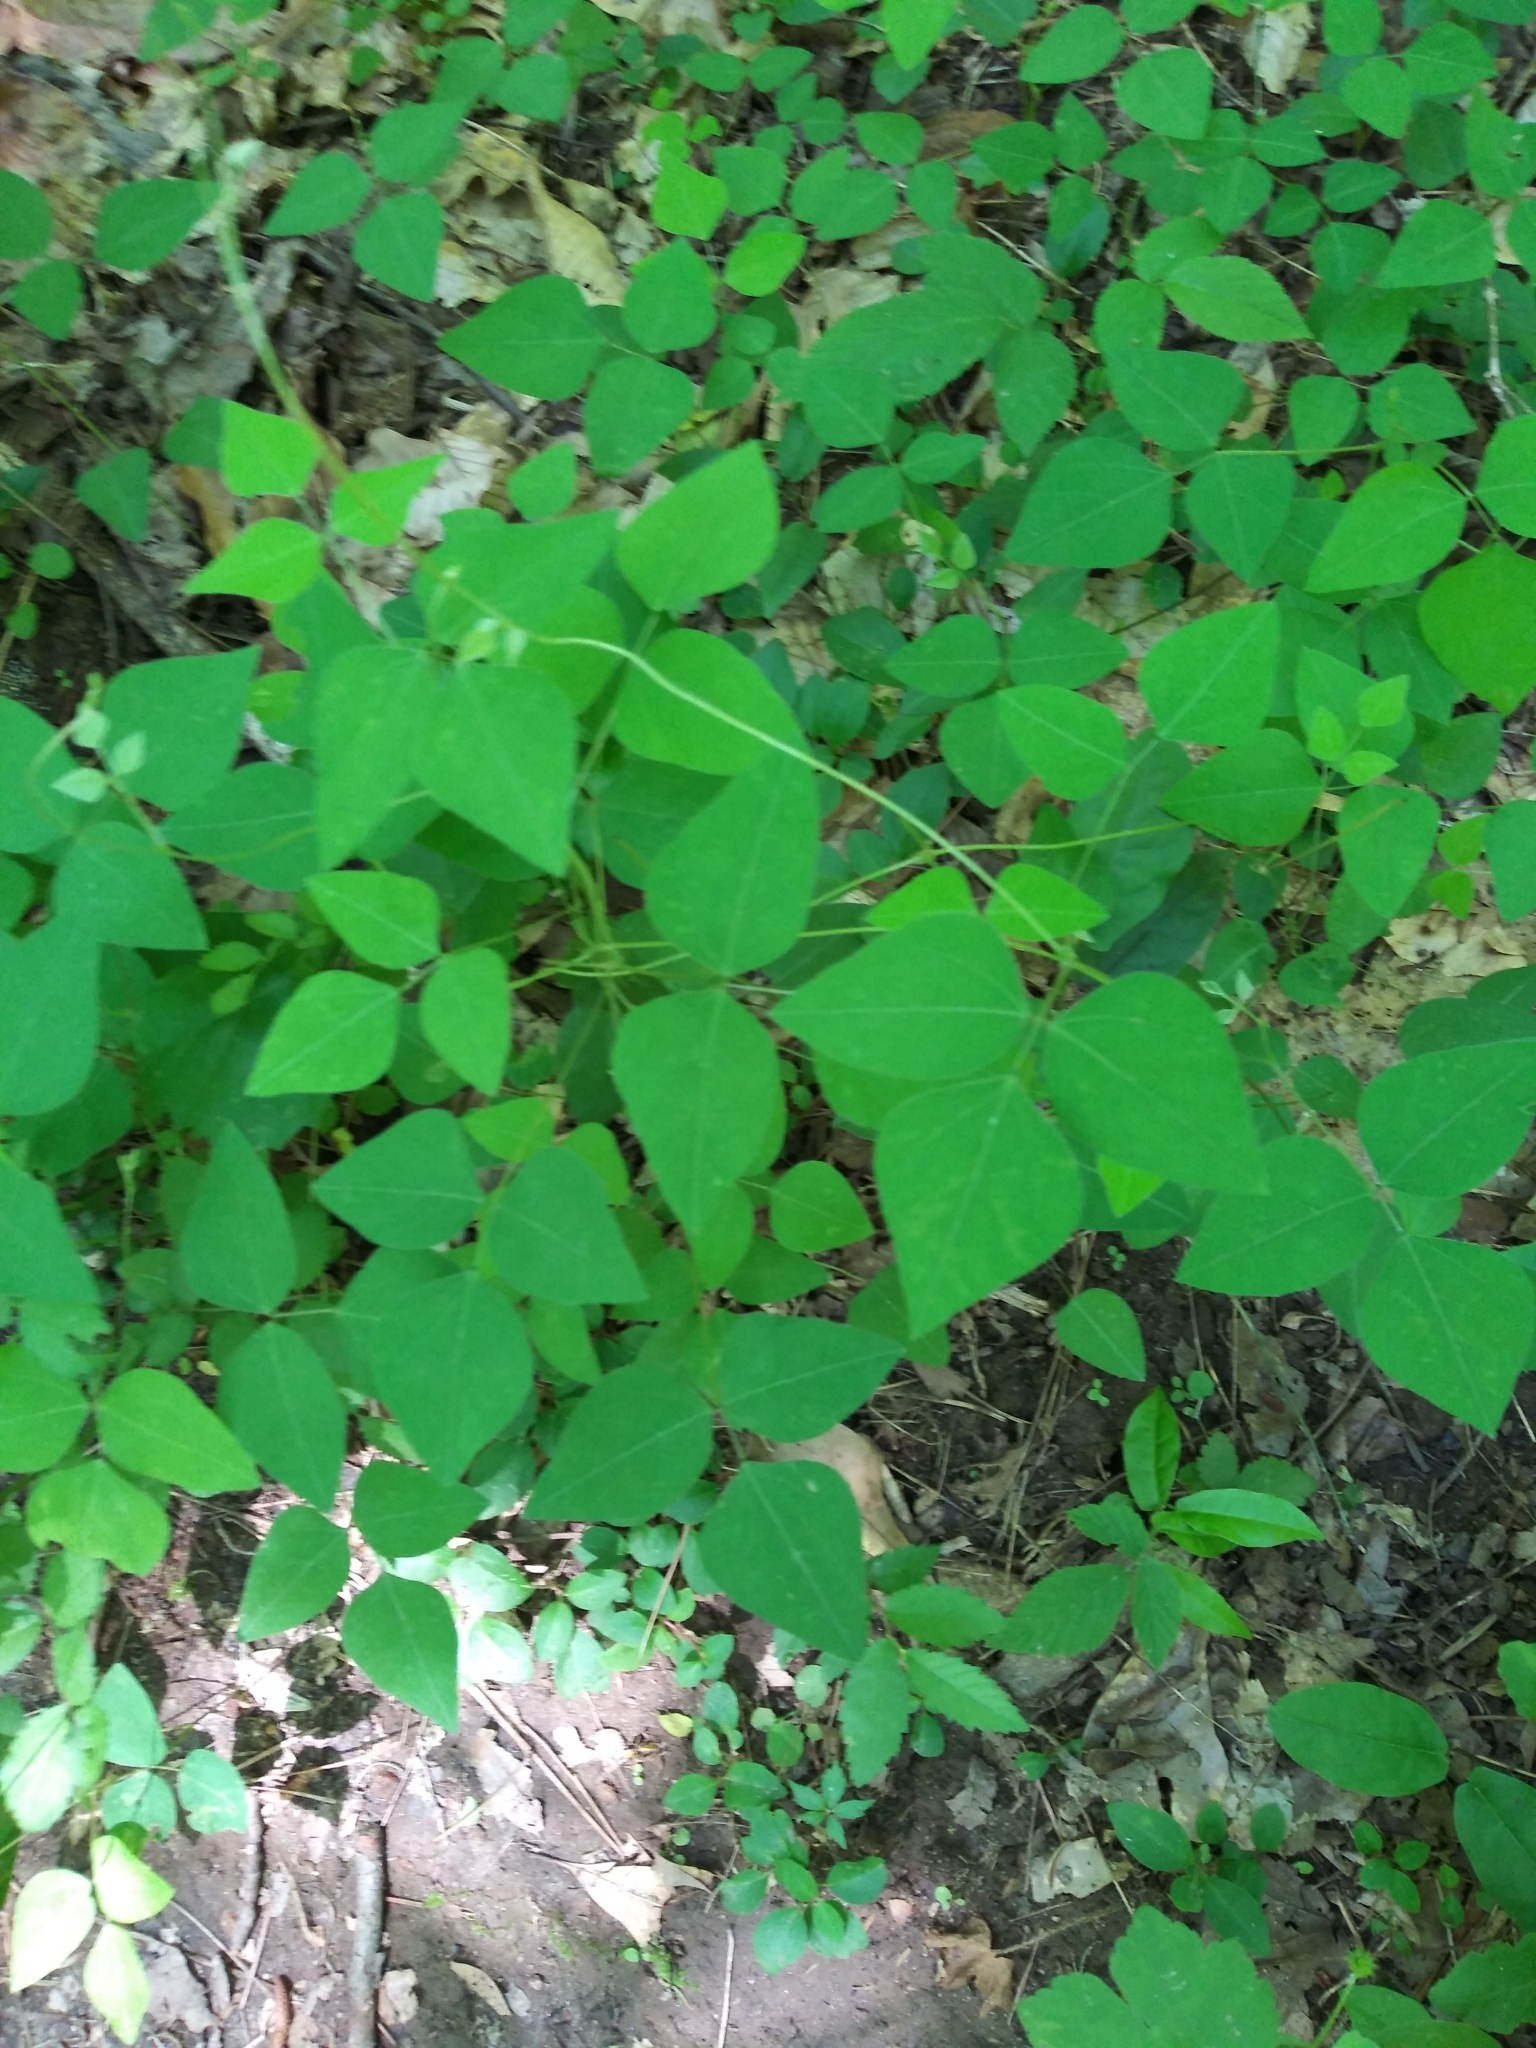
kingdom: Plantae
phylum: Tracheophyta
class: Magnoliopsida
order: Fabales
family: Fabaceae
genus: Amphicarpaea
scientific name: Amphicarpaea bracteata
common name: American hog peanut
